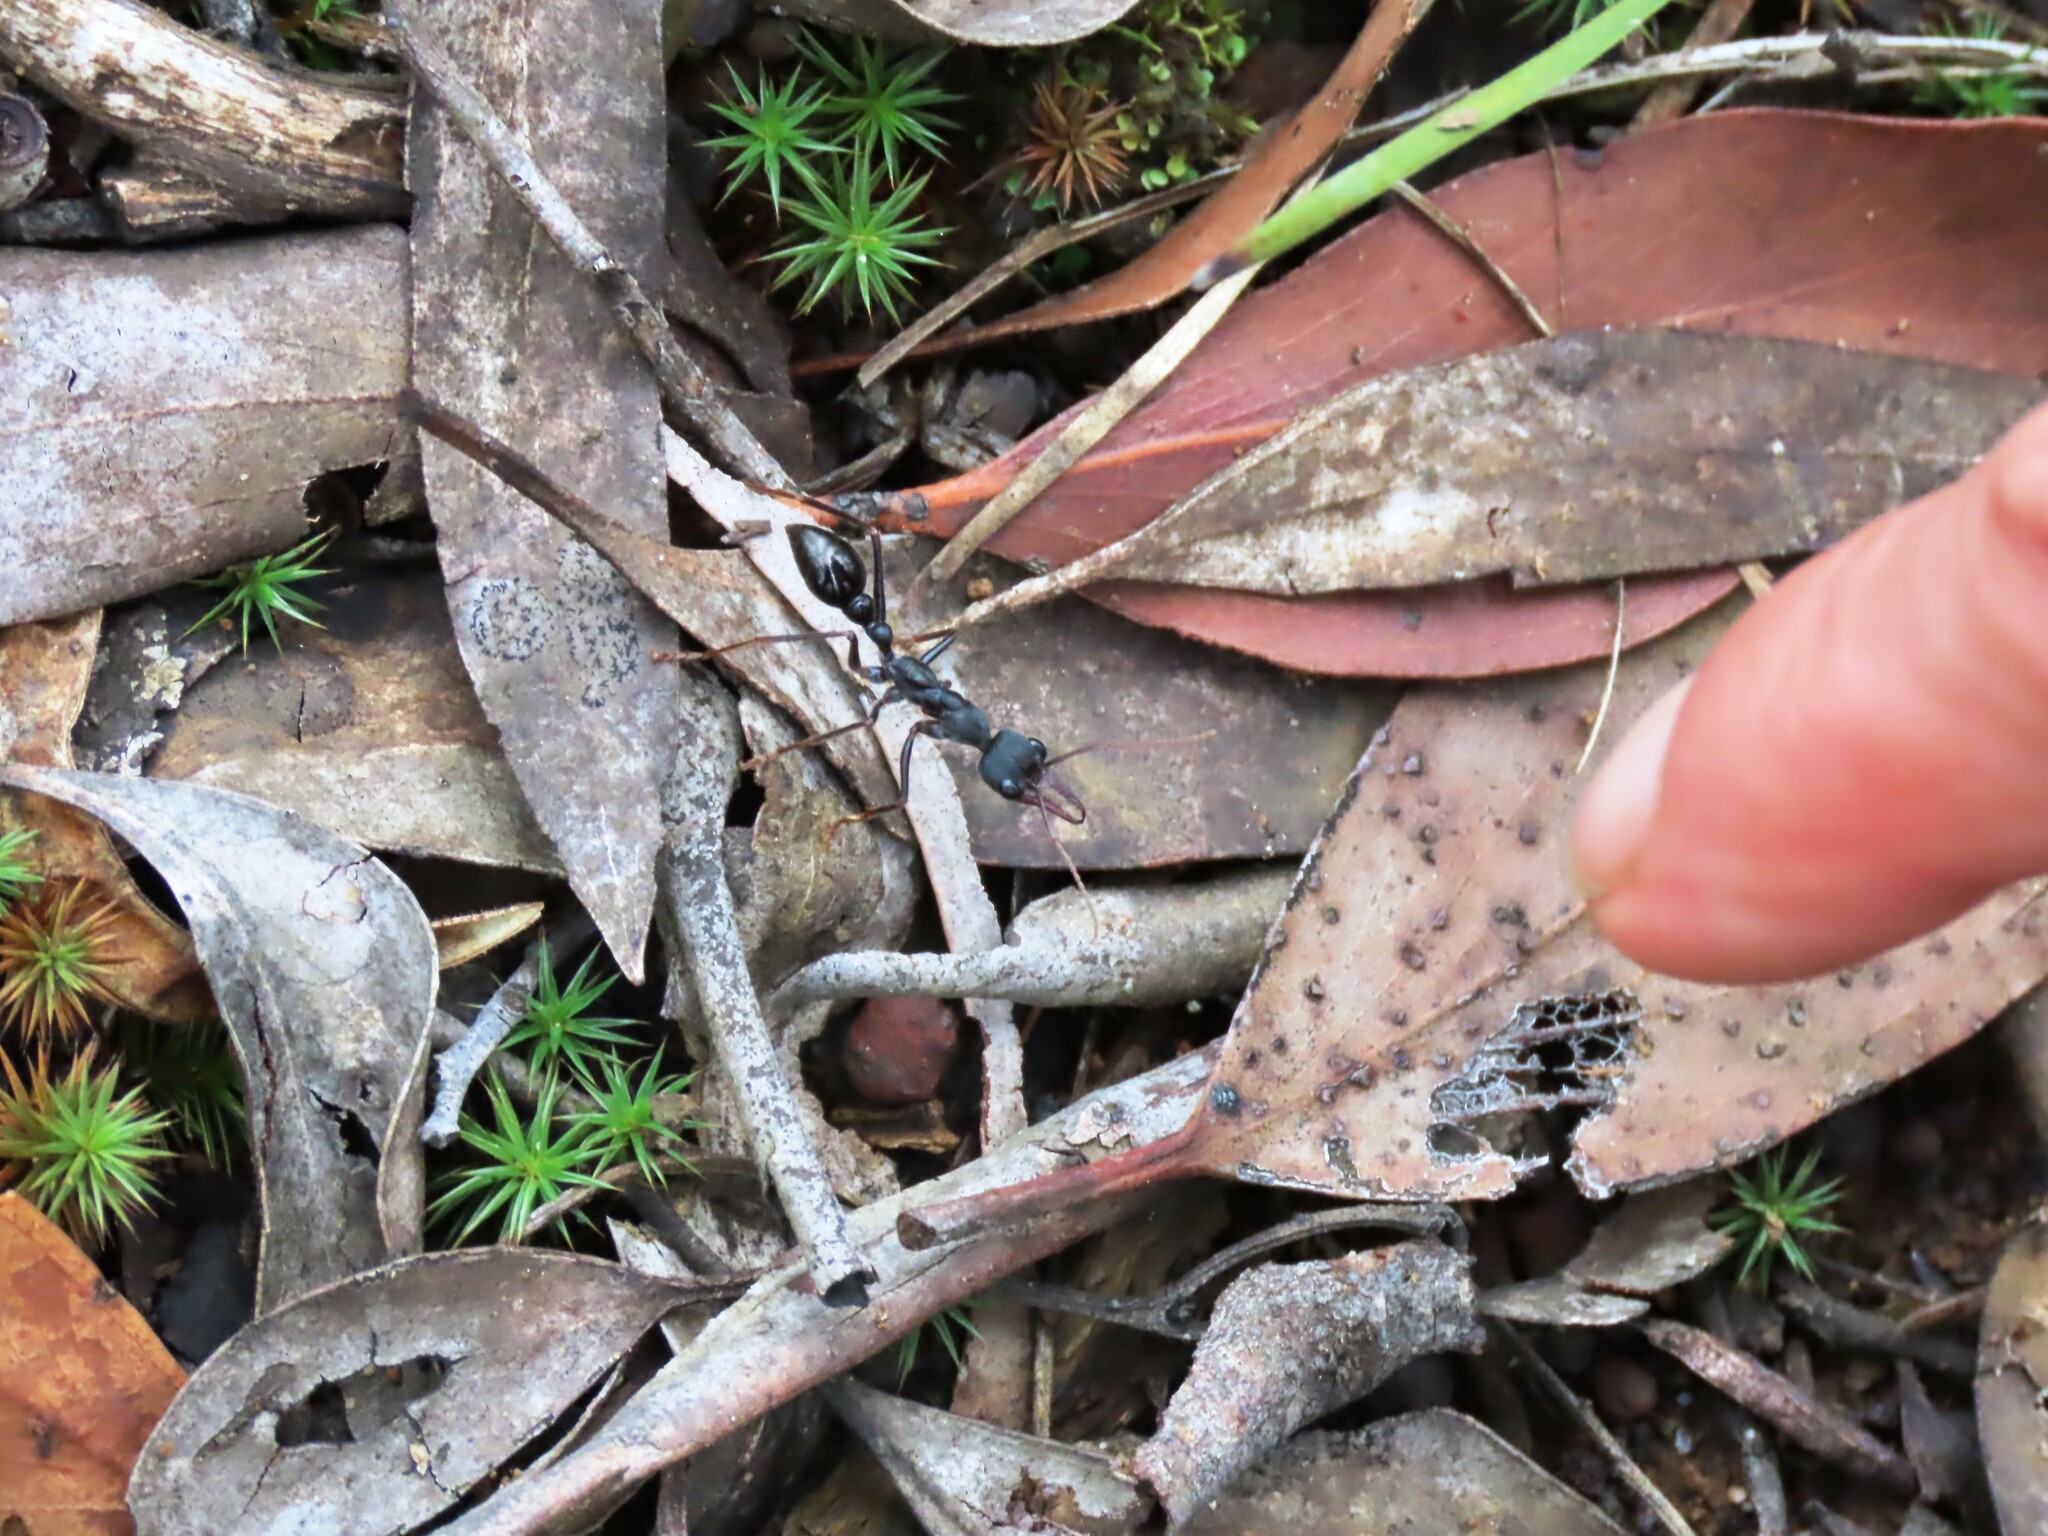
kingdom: Animalia
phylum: Arthropoda
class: Insecta
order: Hymenoptera
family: Formicidae
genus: Myrmecia
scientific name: Myrmecia pyriformis
